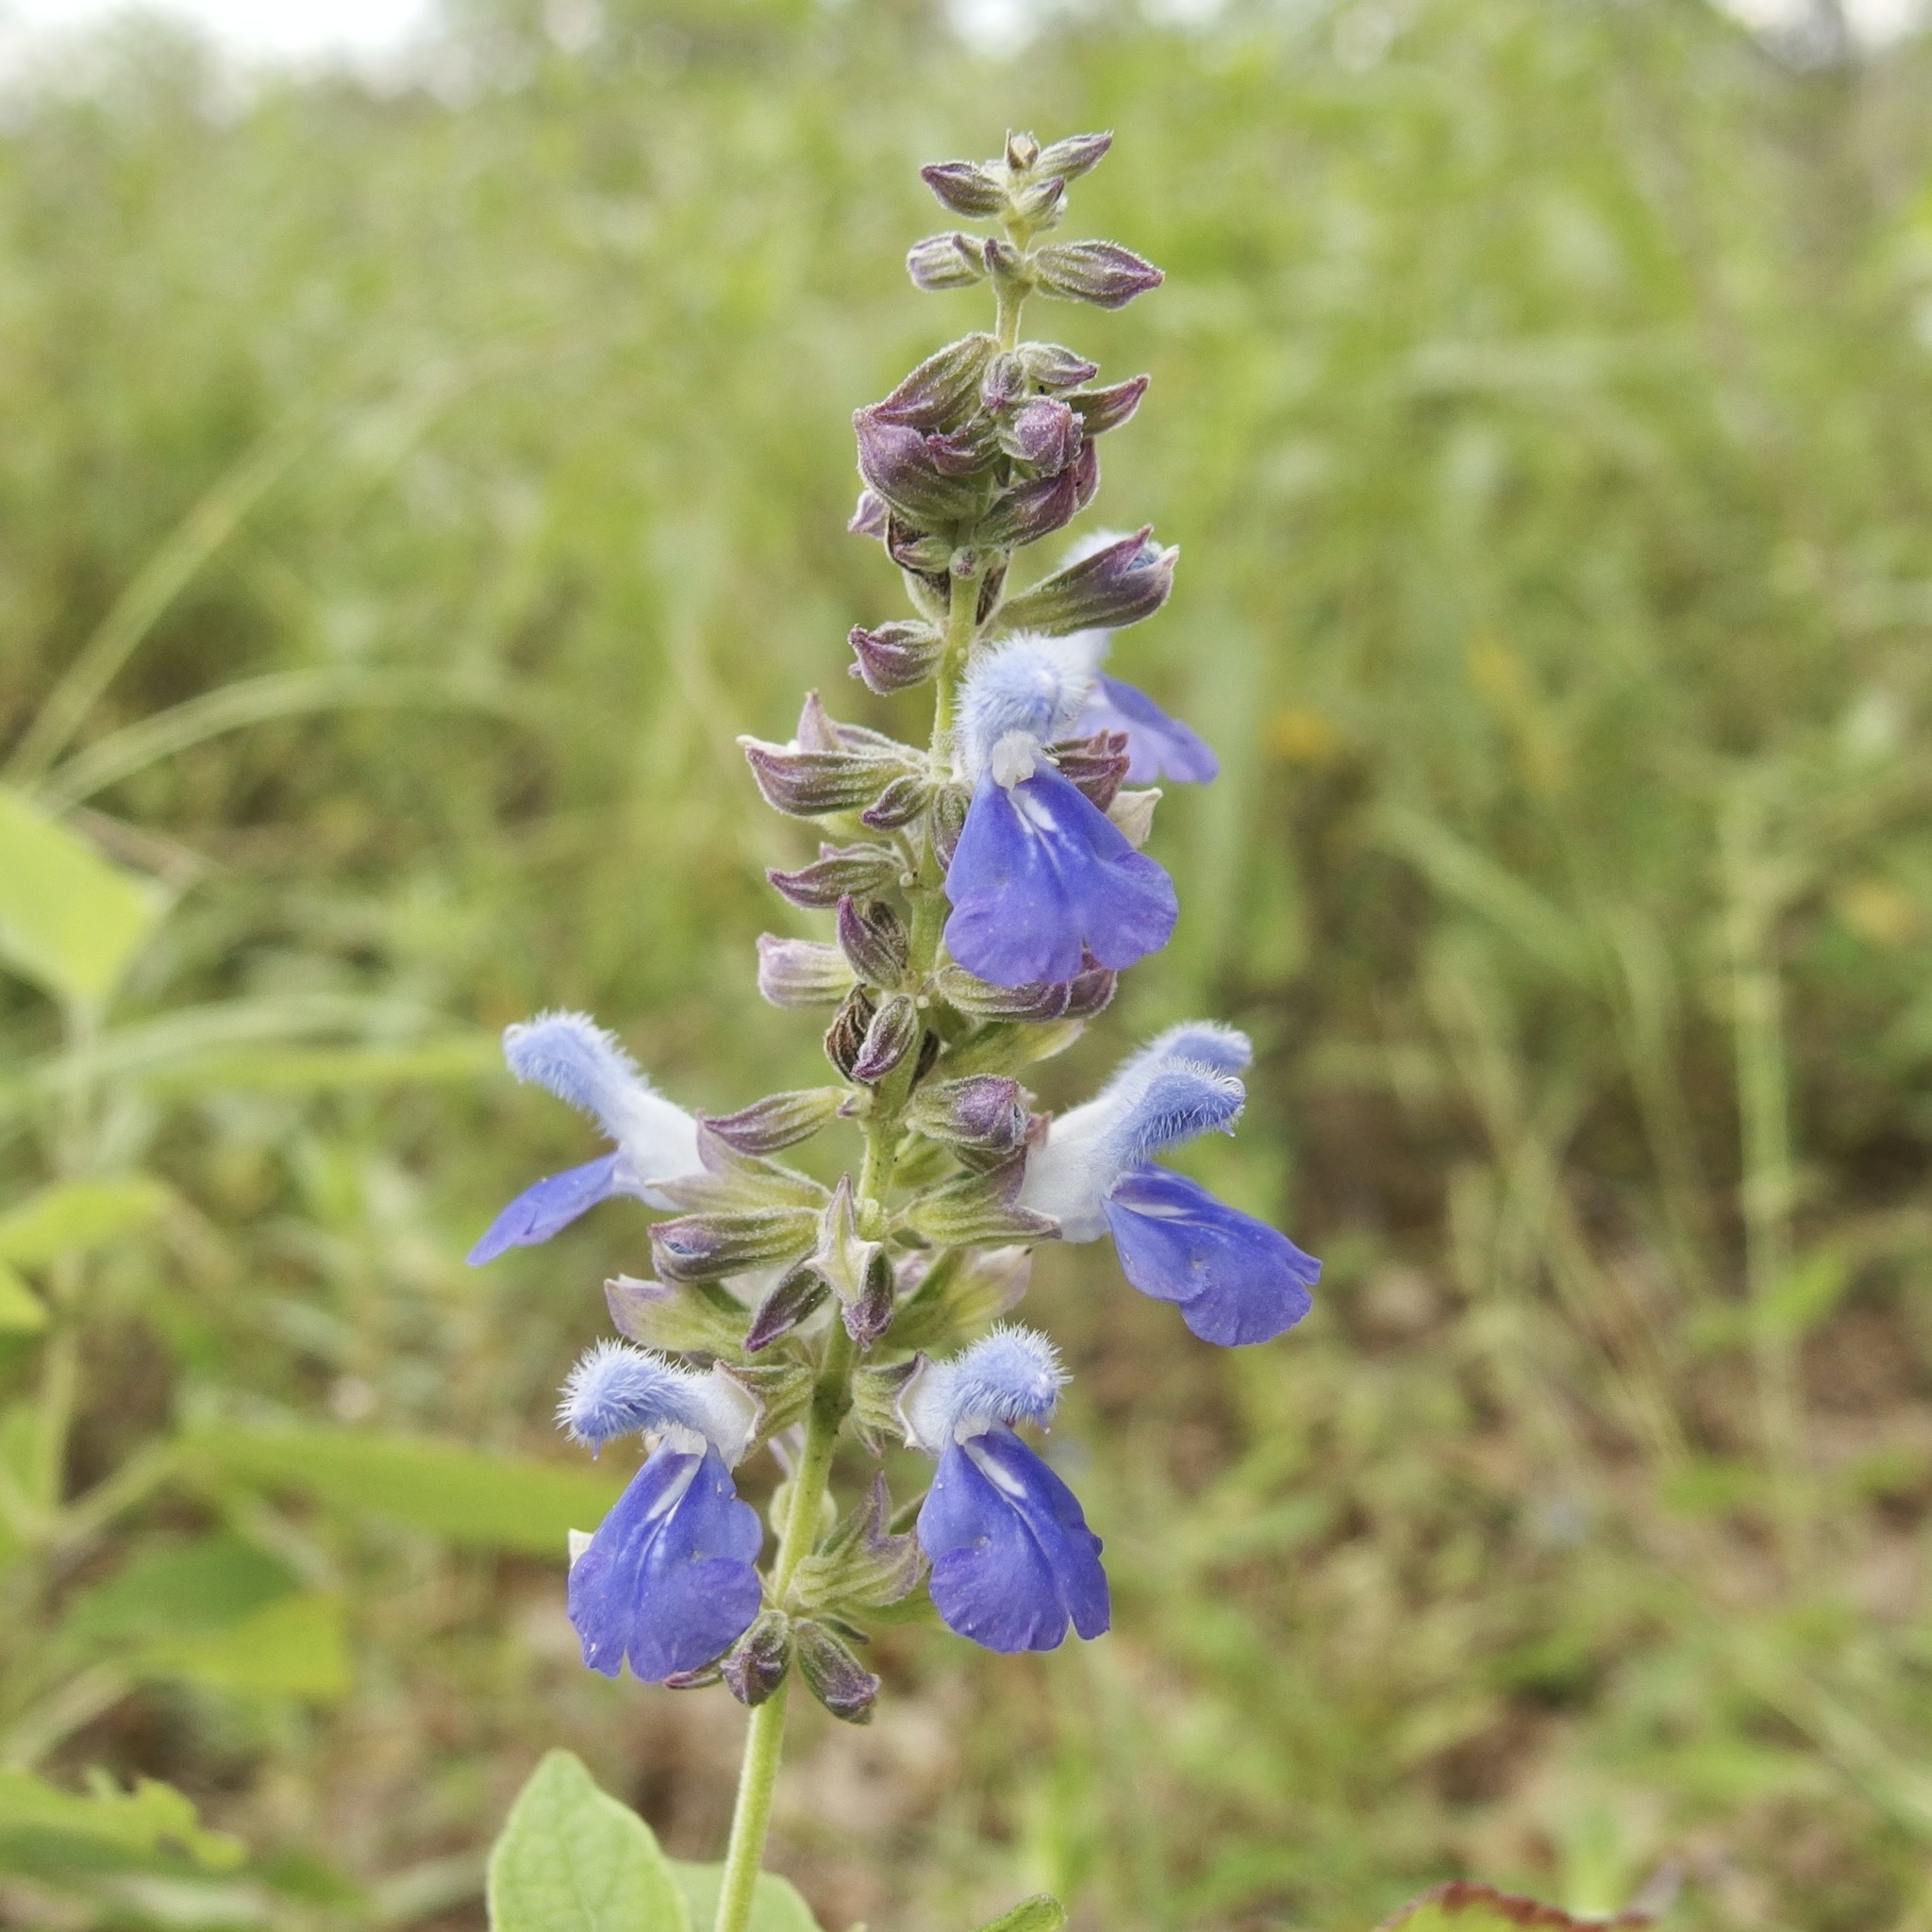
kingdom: Plantae
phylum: Tracheophyta
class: Magnoliopsida
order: Lamiales
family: Lamiaceae
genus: Salvia
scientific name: Salvia palmeri
